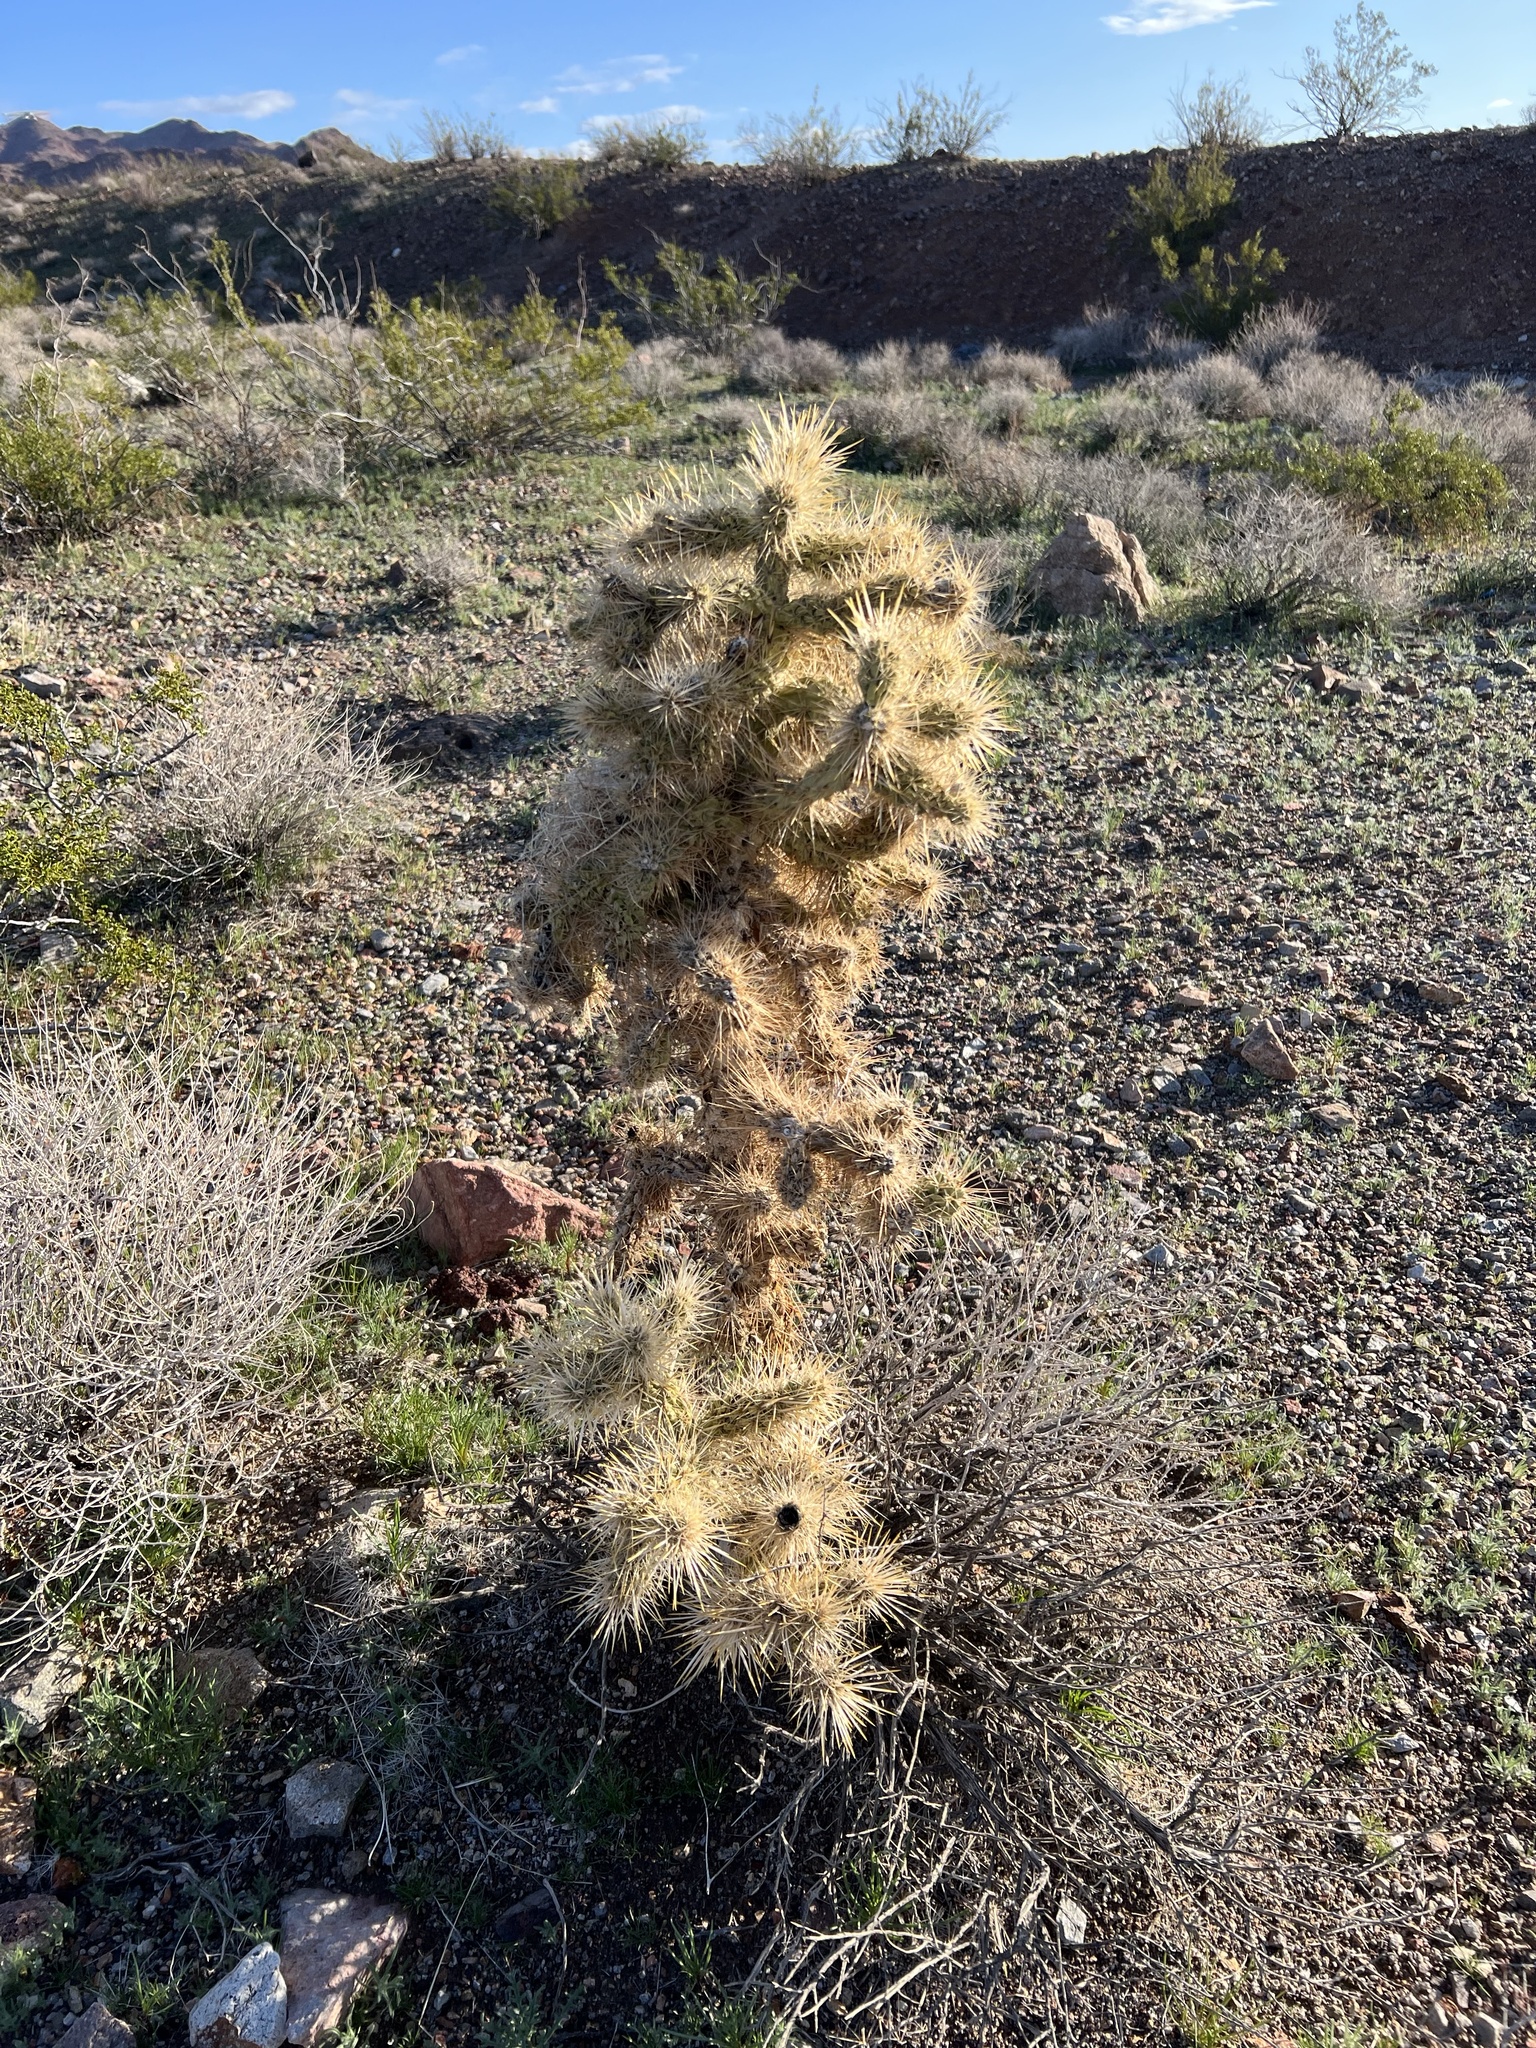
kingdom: Plantae
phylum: Tracheophyta
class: Magnoliopsida
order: Caryophyllales
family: Cactaceae
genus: Cylindropuntia
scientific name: Cylindropuntia echinocarpa
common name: Ground cholla
